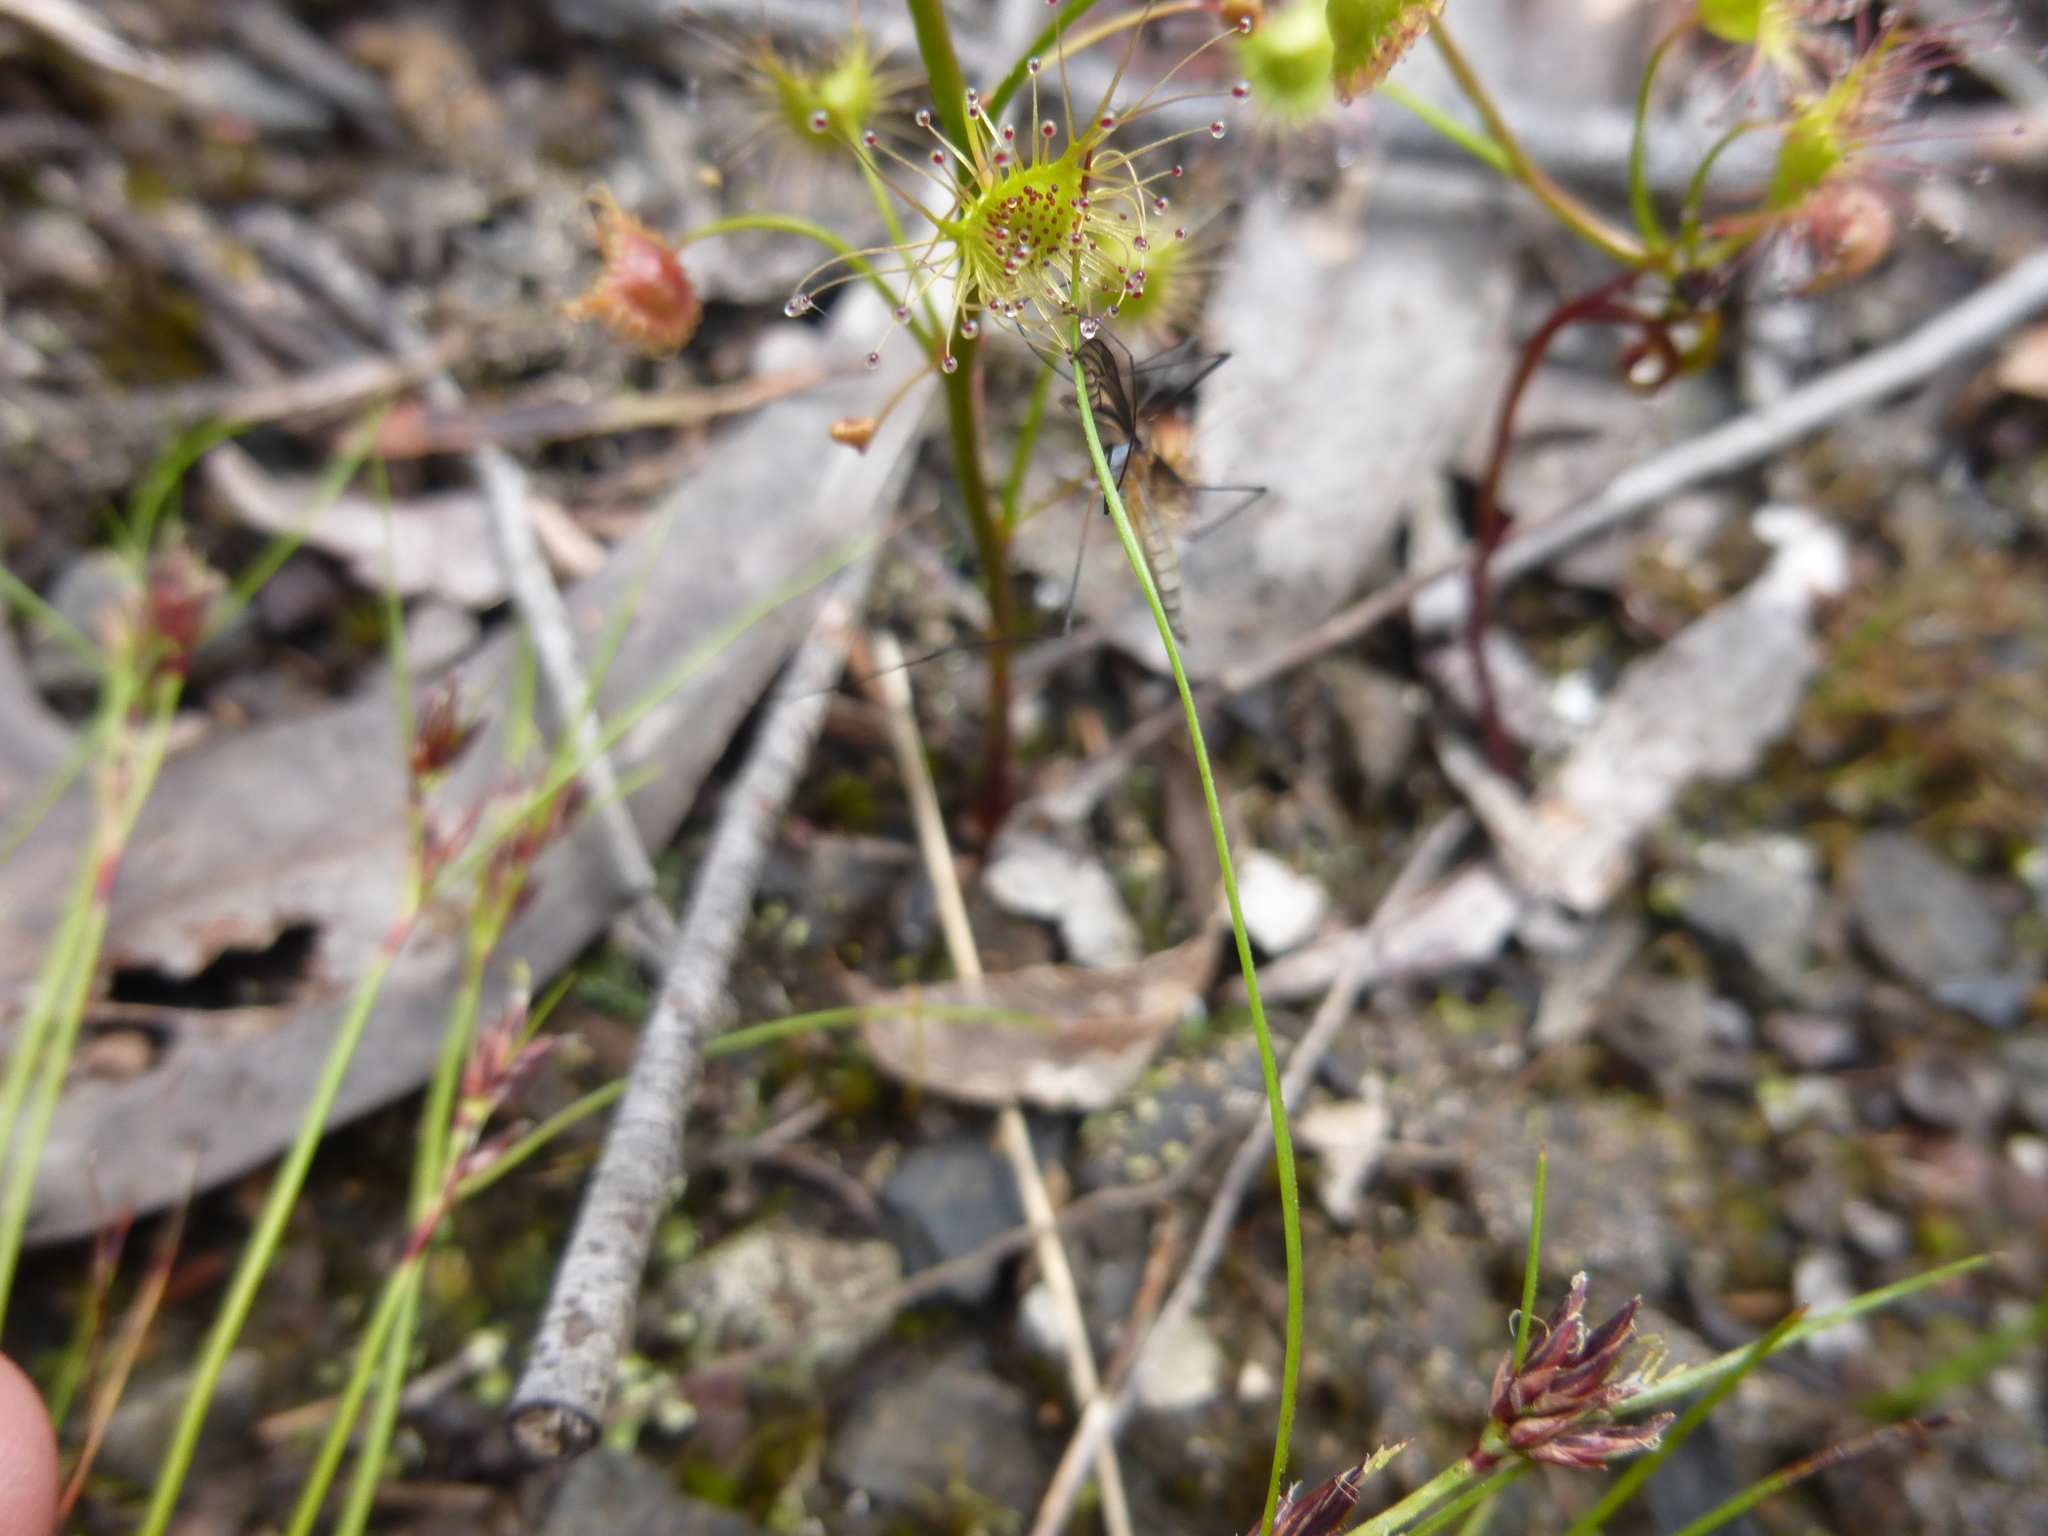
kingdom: Plantae
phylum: Tracheophyta
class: Magnoliopsida
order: Caryophyllales
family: Droseraceae
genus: Drosera
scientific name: Drosera peltata
